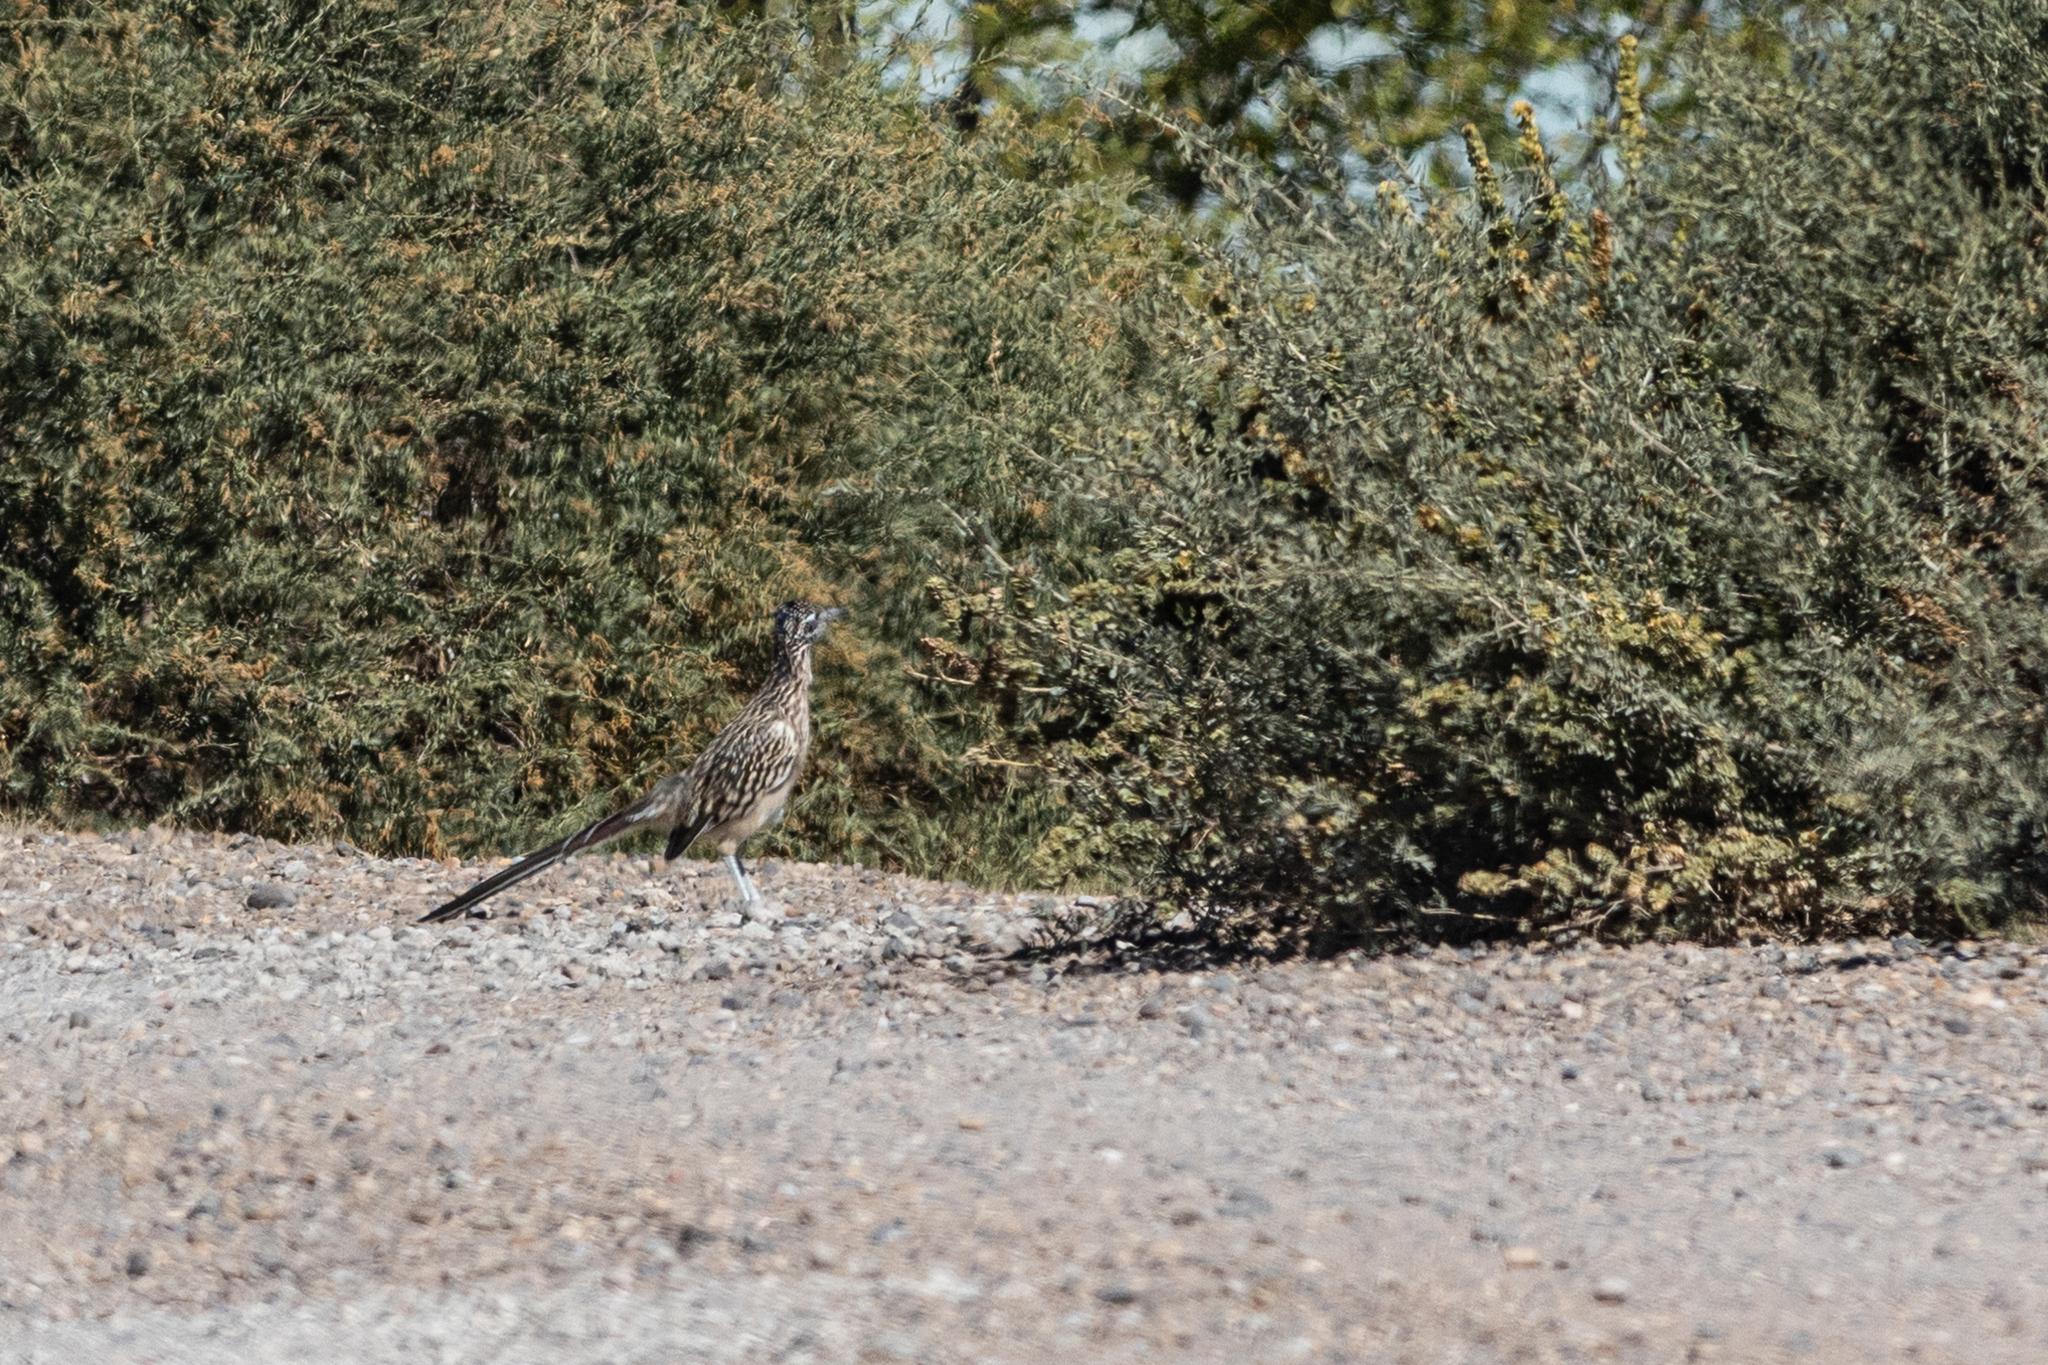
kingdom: Animalia
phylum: Chordata
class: Aves
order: Cuculiformes
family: Cuculidae
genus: Geococcyx
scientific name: Geococcyx californianus
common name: Greater roadrunner
